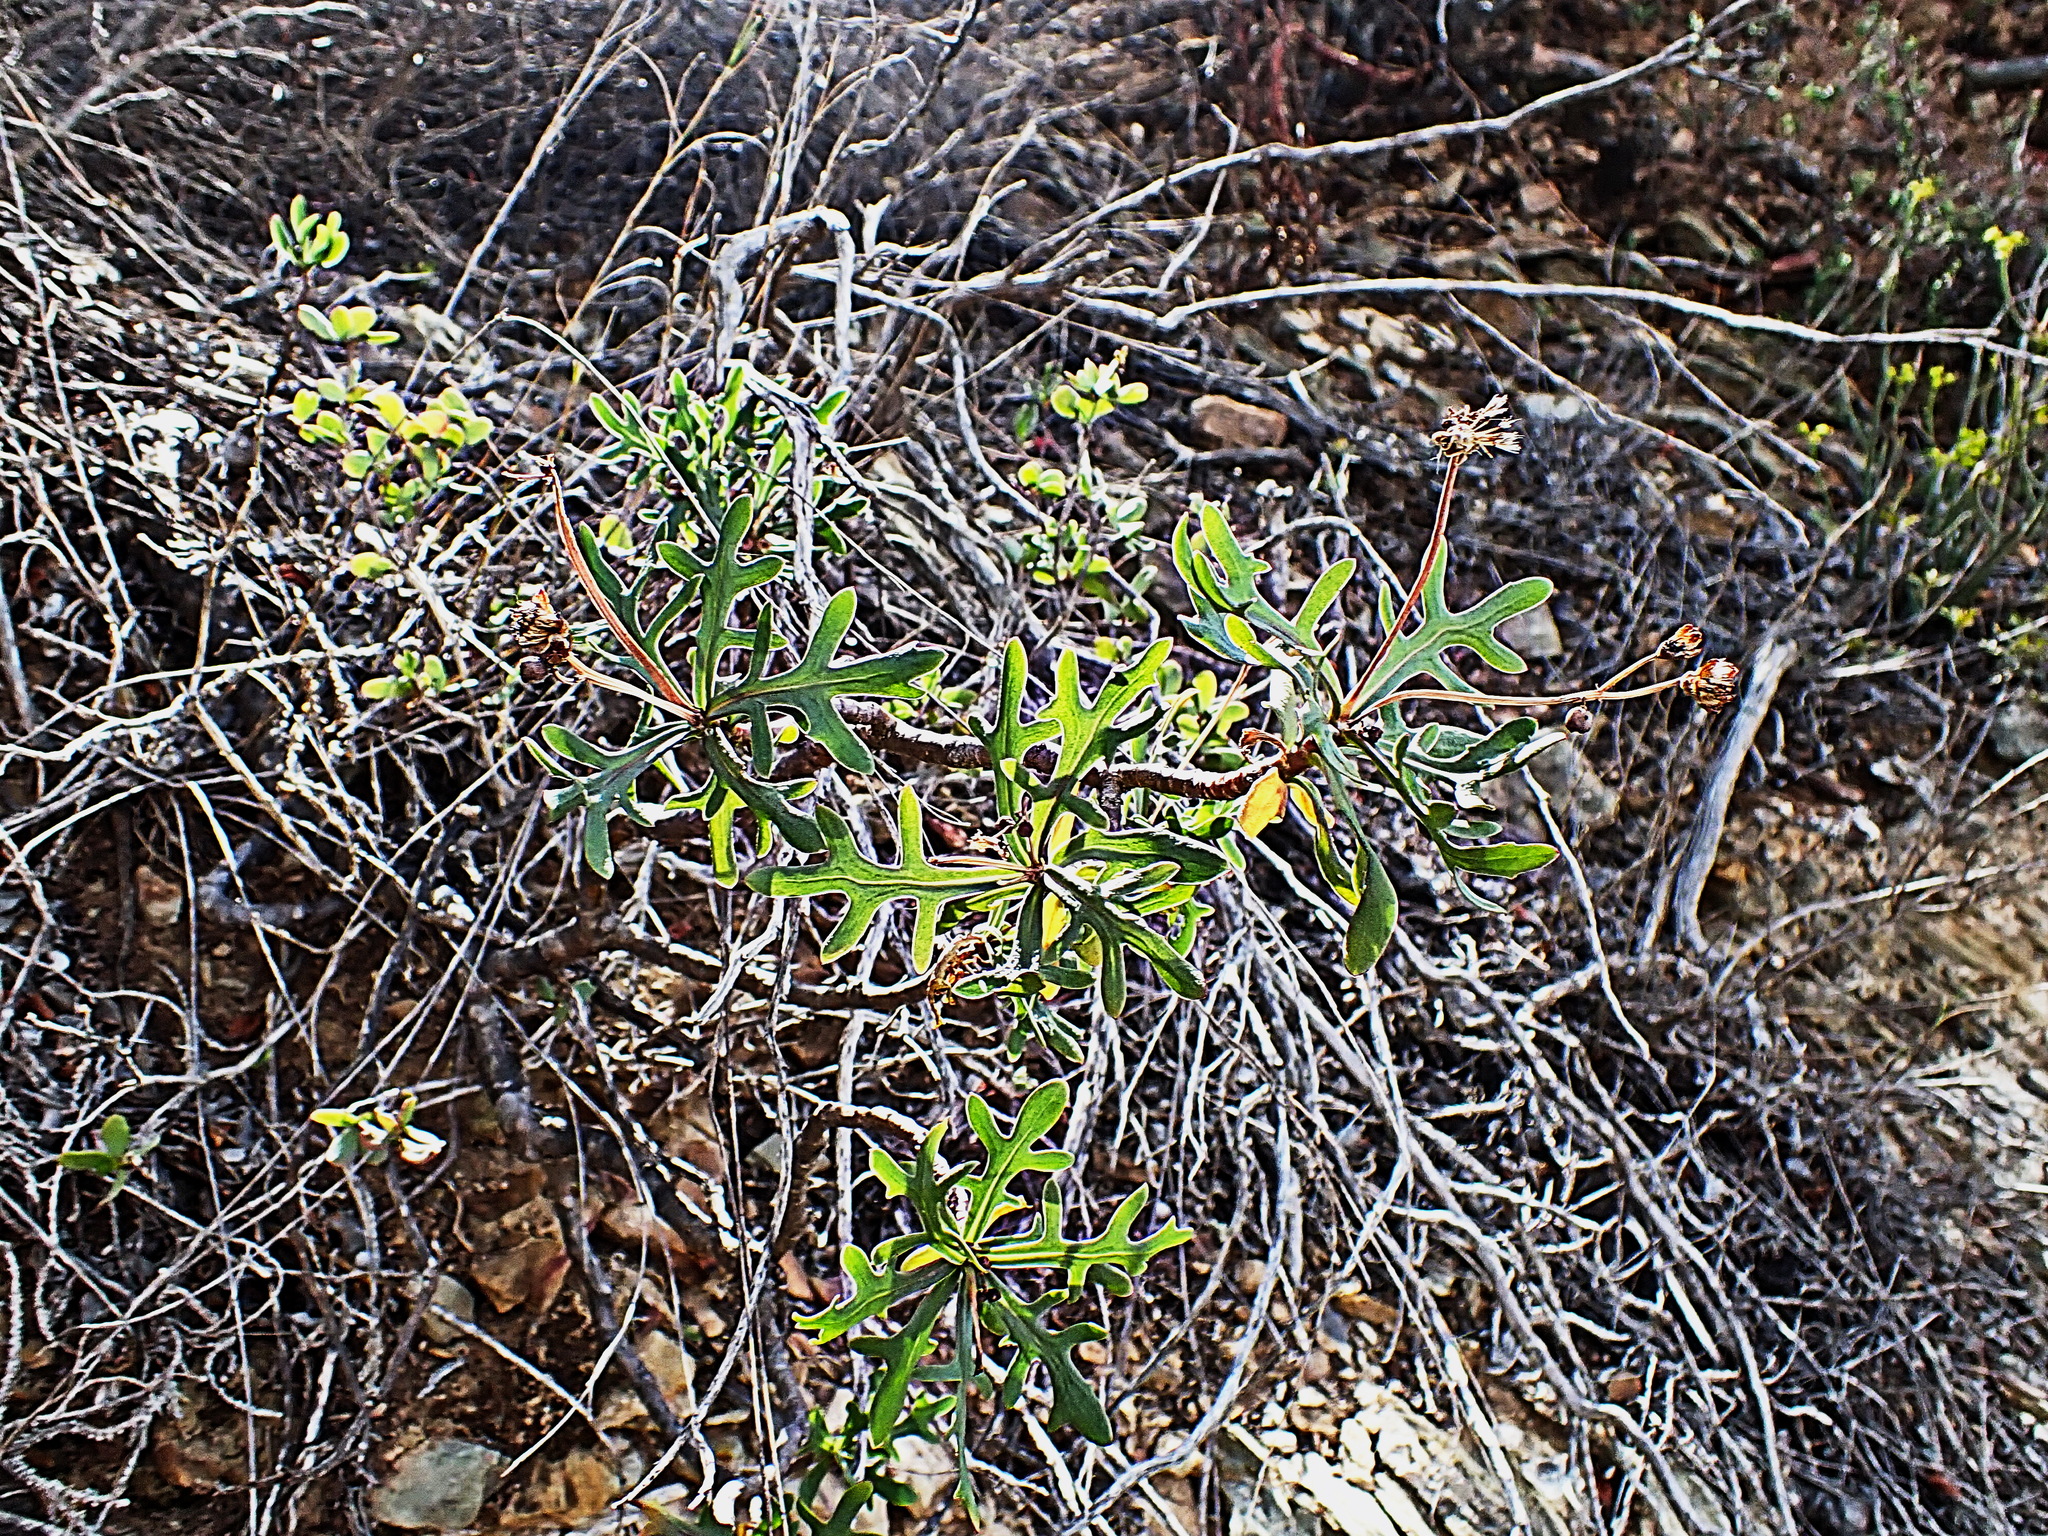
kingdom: Plantae
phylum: Tracheophyta
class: Magnoliopsida
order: Asterales
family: Asteraceae
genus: Othonna
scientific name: Othonna retrofracta
